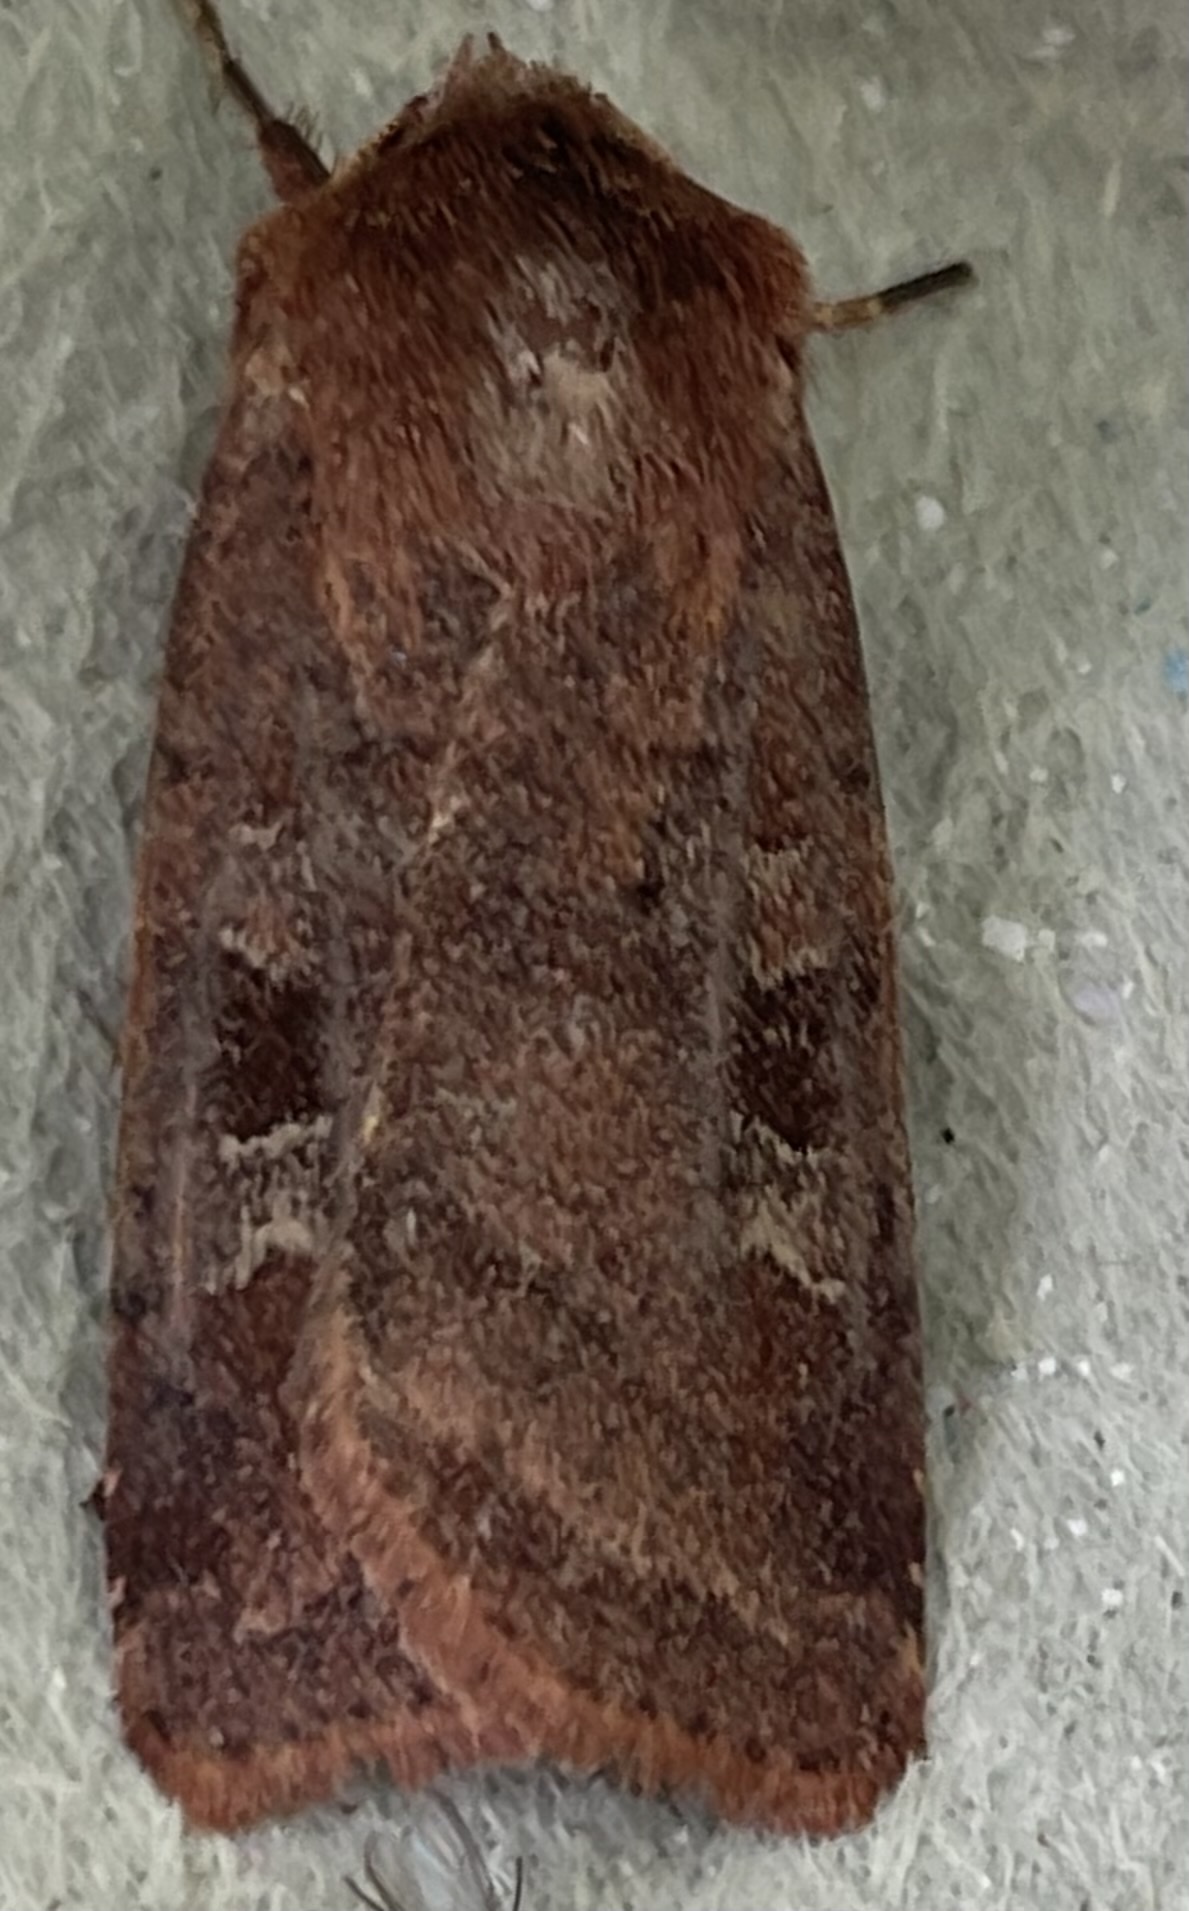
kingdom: Animalia
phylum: Arthropoda
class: Insecta
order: Lepidoptera
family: Noctuidae
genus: Diarsia
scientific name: Diarsia rubi
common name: Small square-spot
